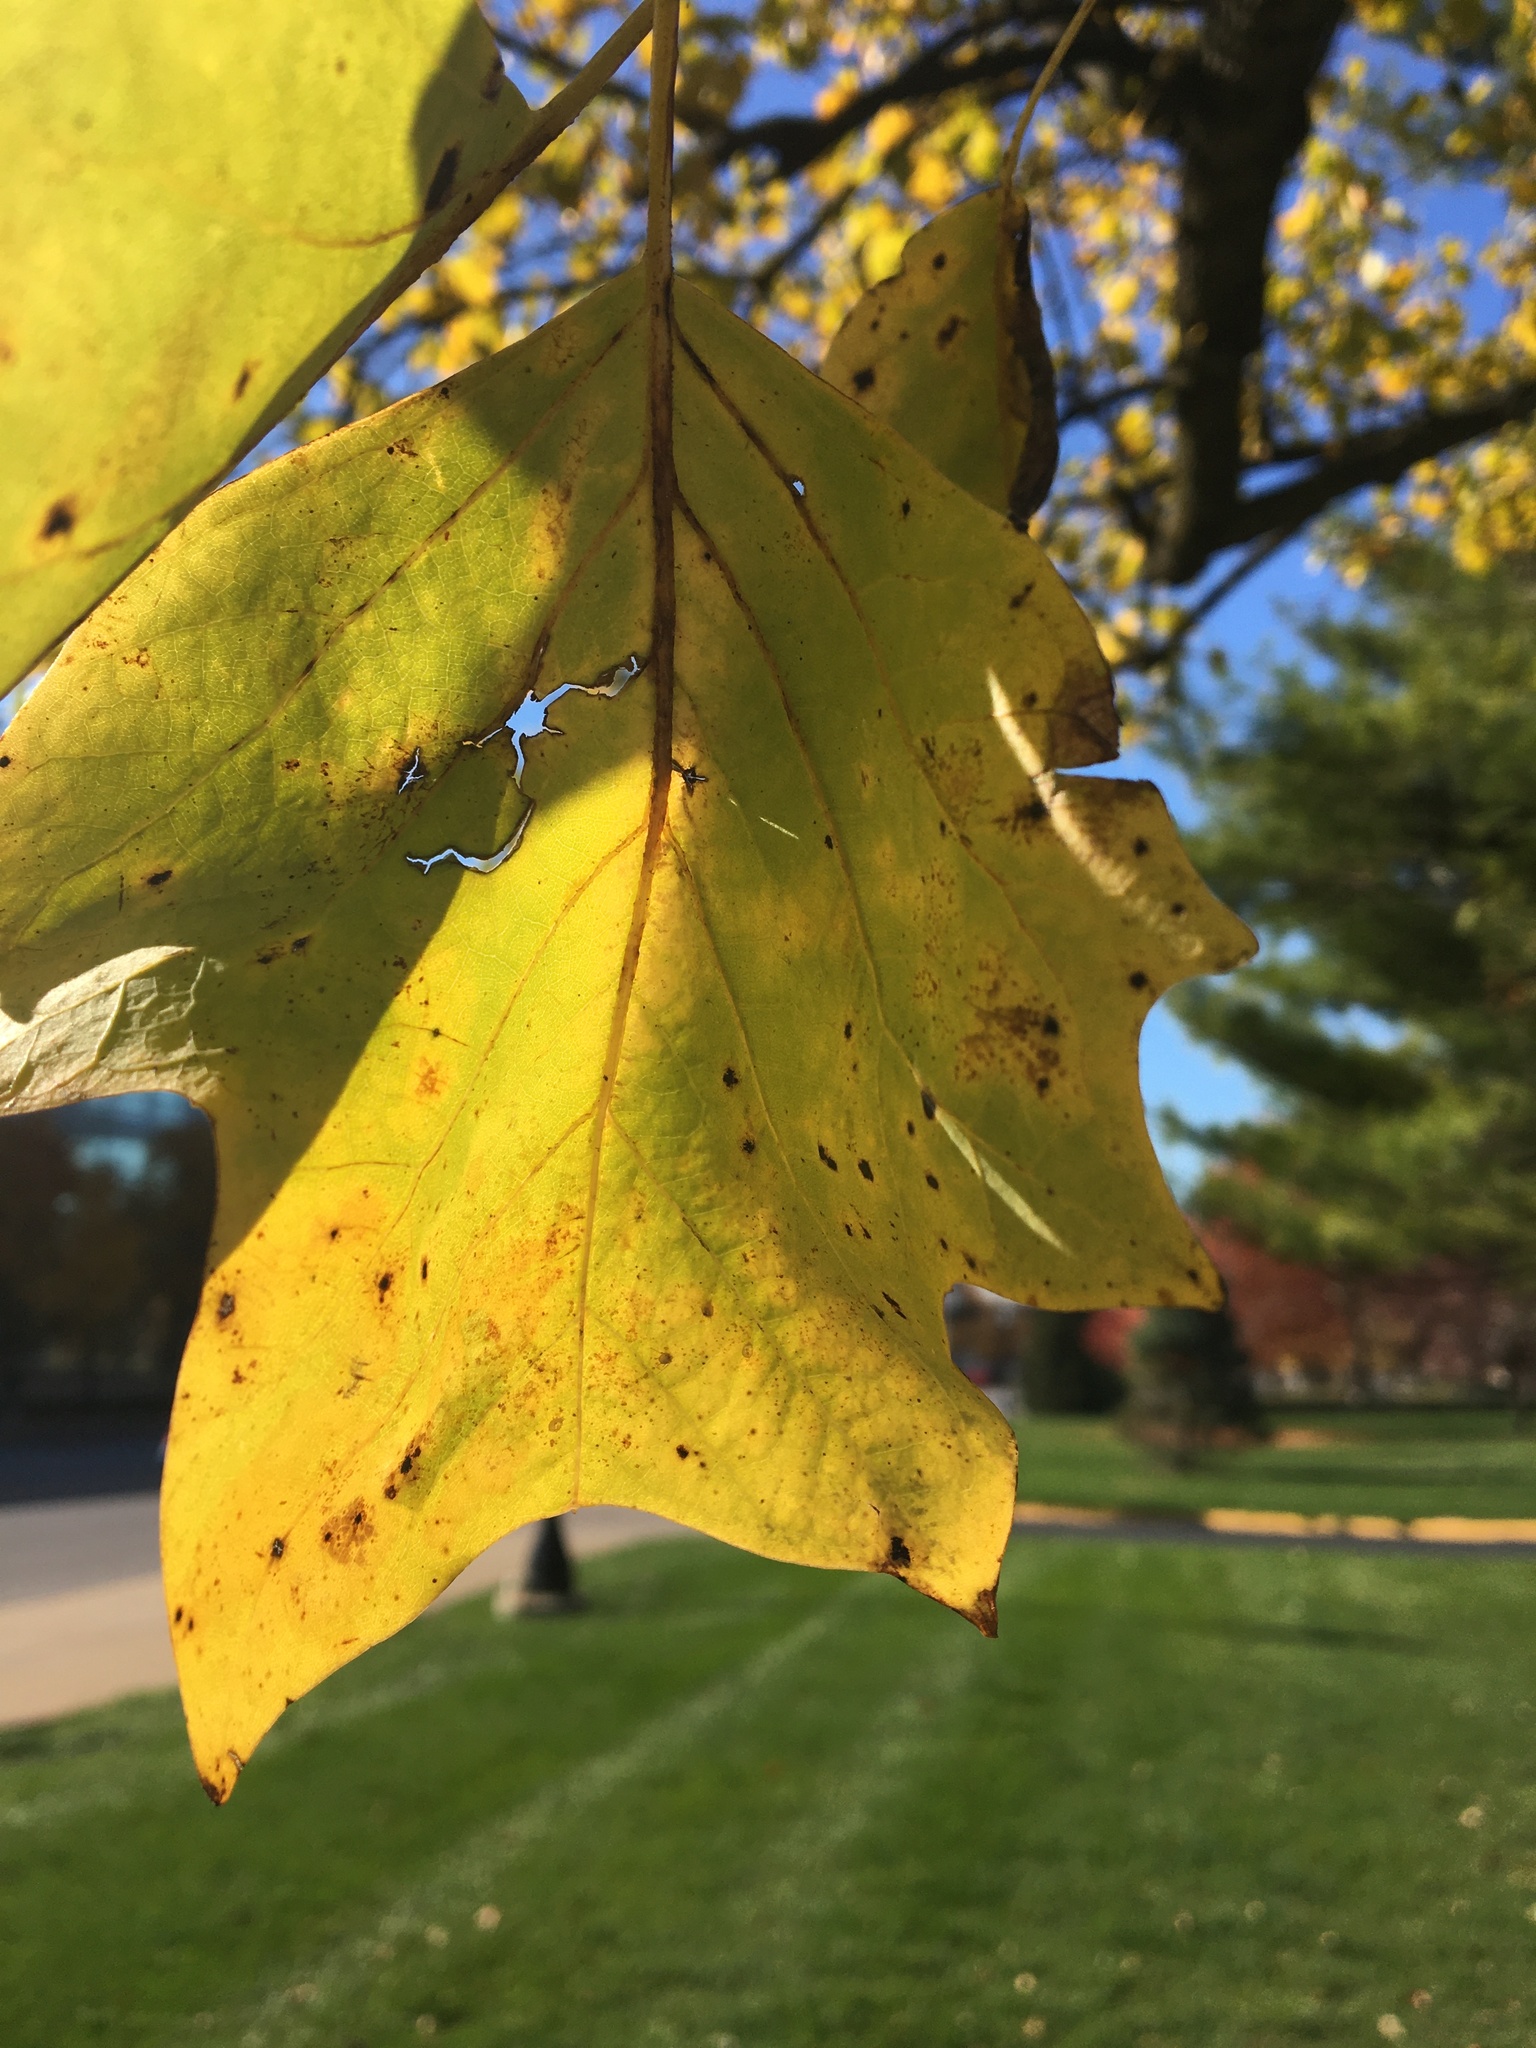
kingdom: Plantae
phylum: Tracheophyta
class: Magnoliopsida
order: Magnoliales
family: Magnoliaceae
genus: Liriodendron
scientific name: Liriodendron tulipifera
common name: Tulip tree
